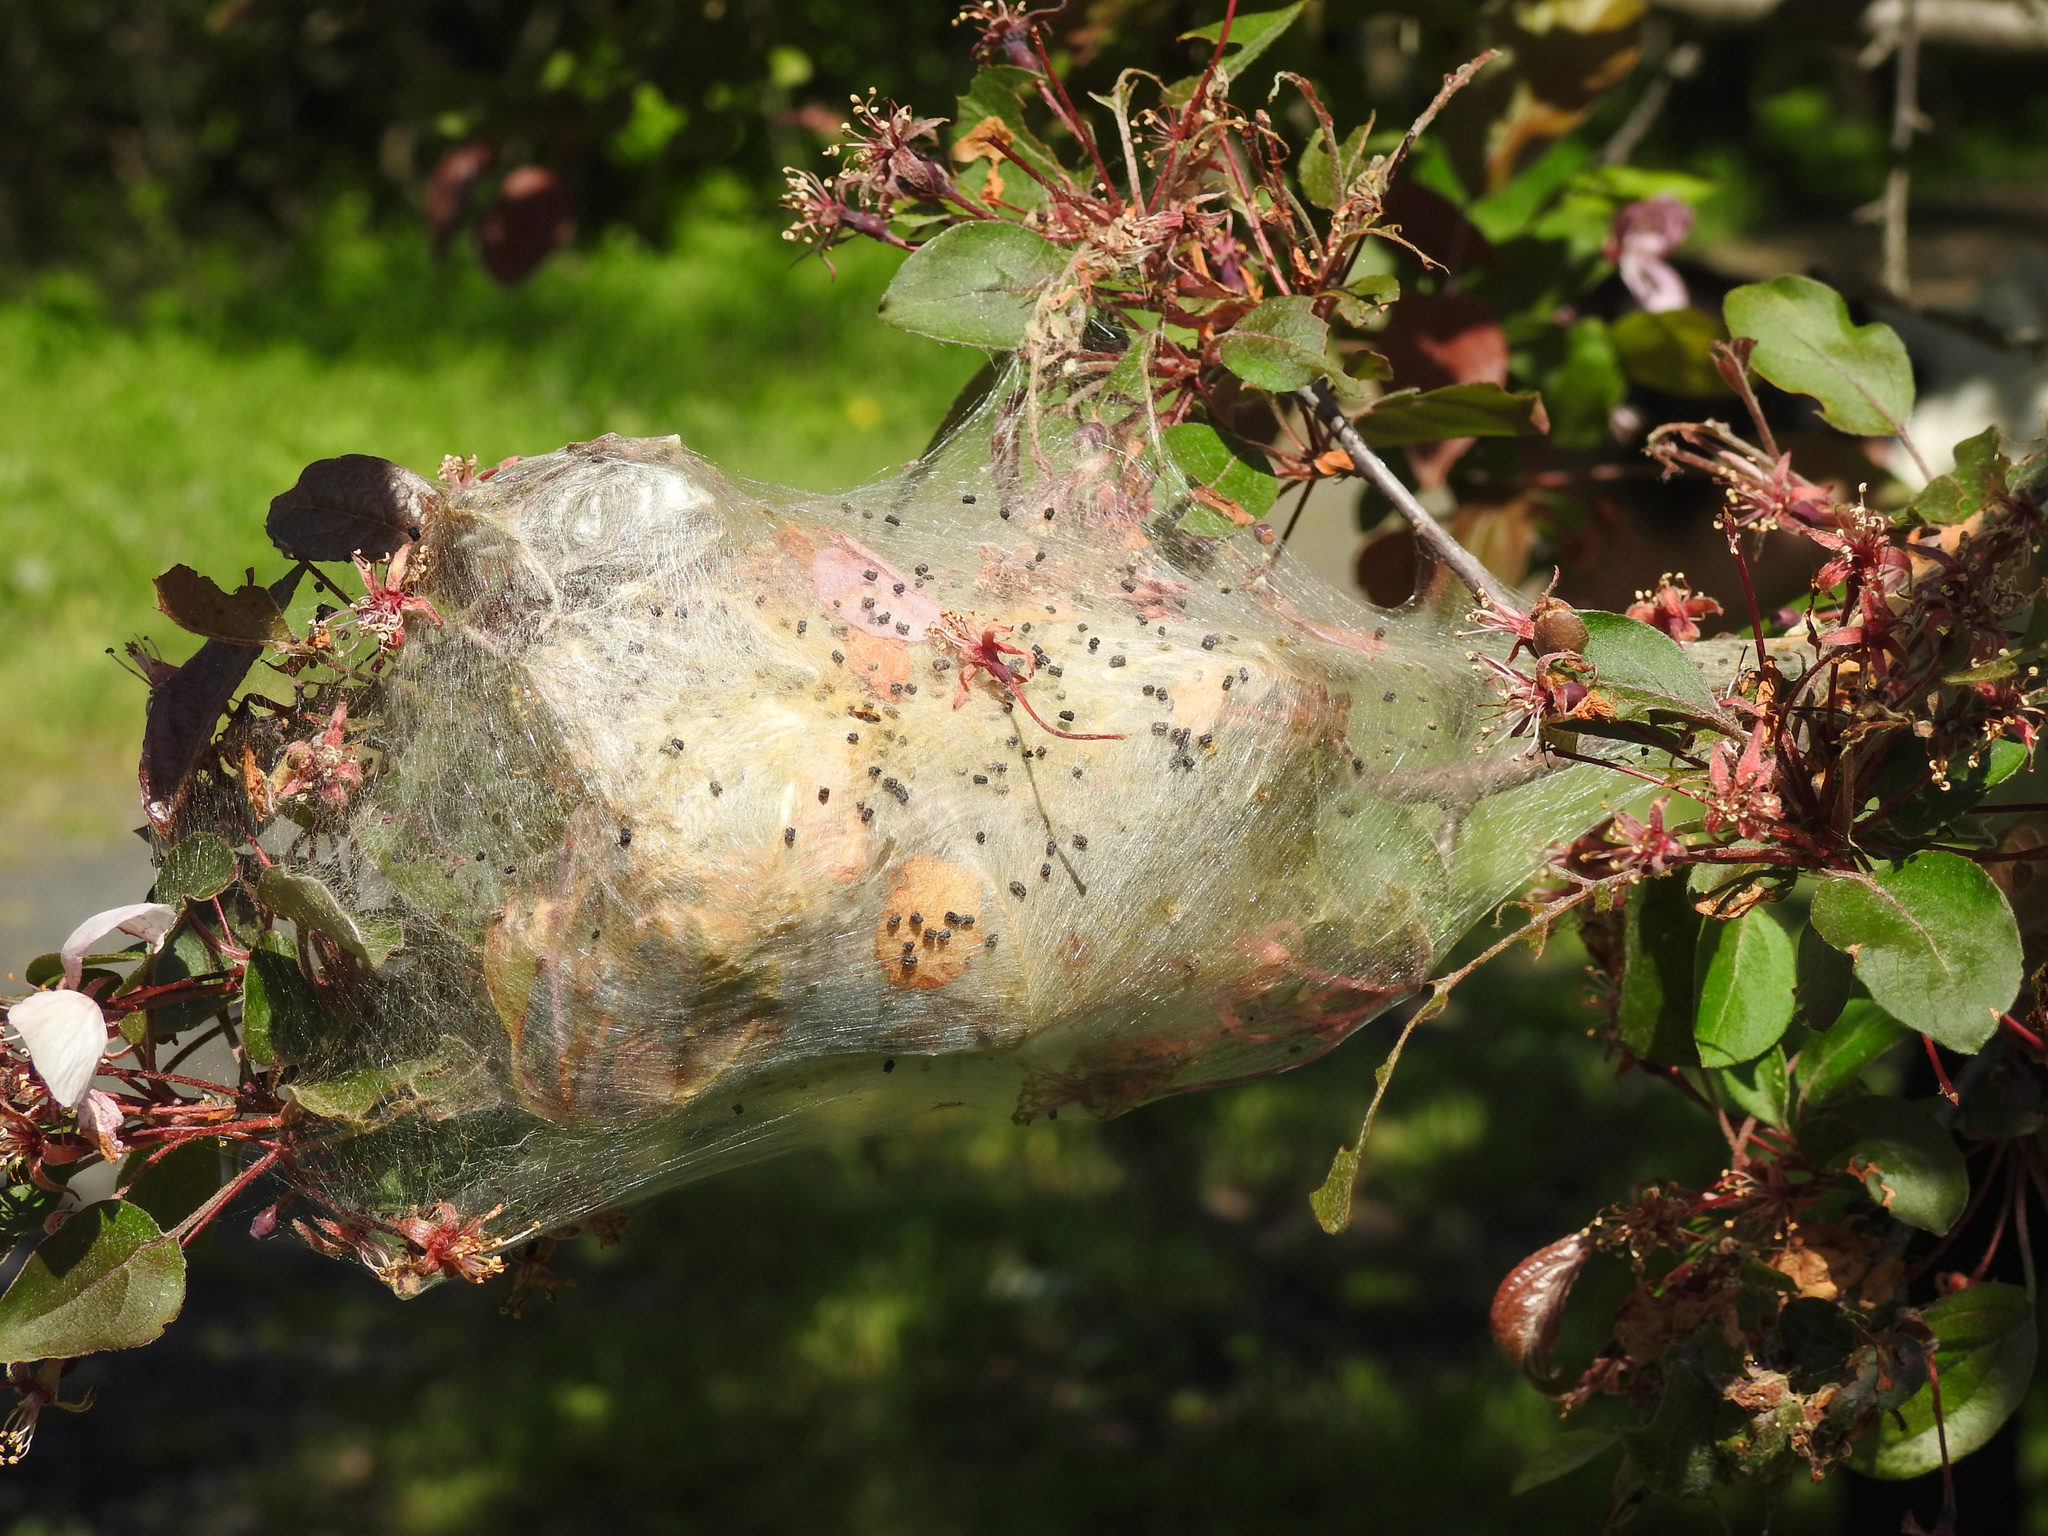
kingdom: Animalia
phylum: Arthropoda
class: Insecta
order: Lepidoptera
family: Lasiocampidae
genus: Malacosoma
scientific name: Malacosoma americana
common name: Eastern tent caterpillar moth
